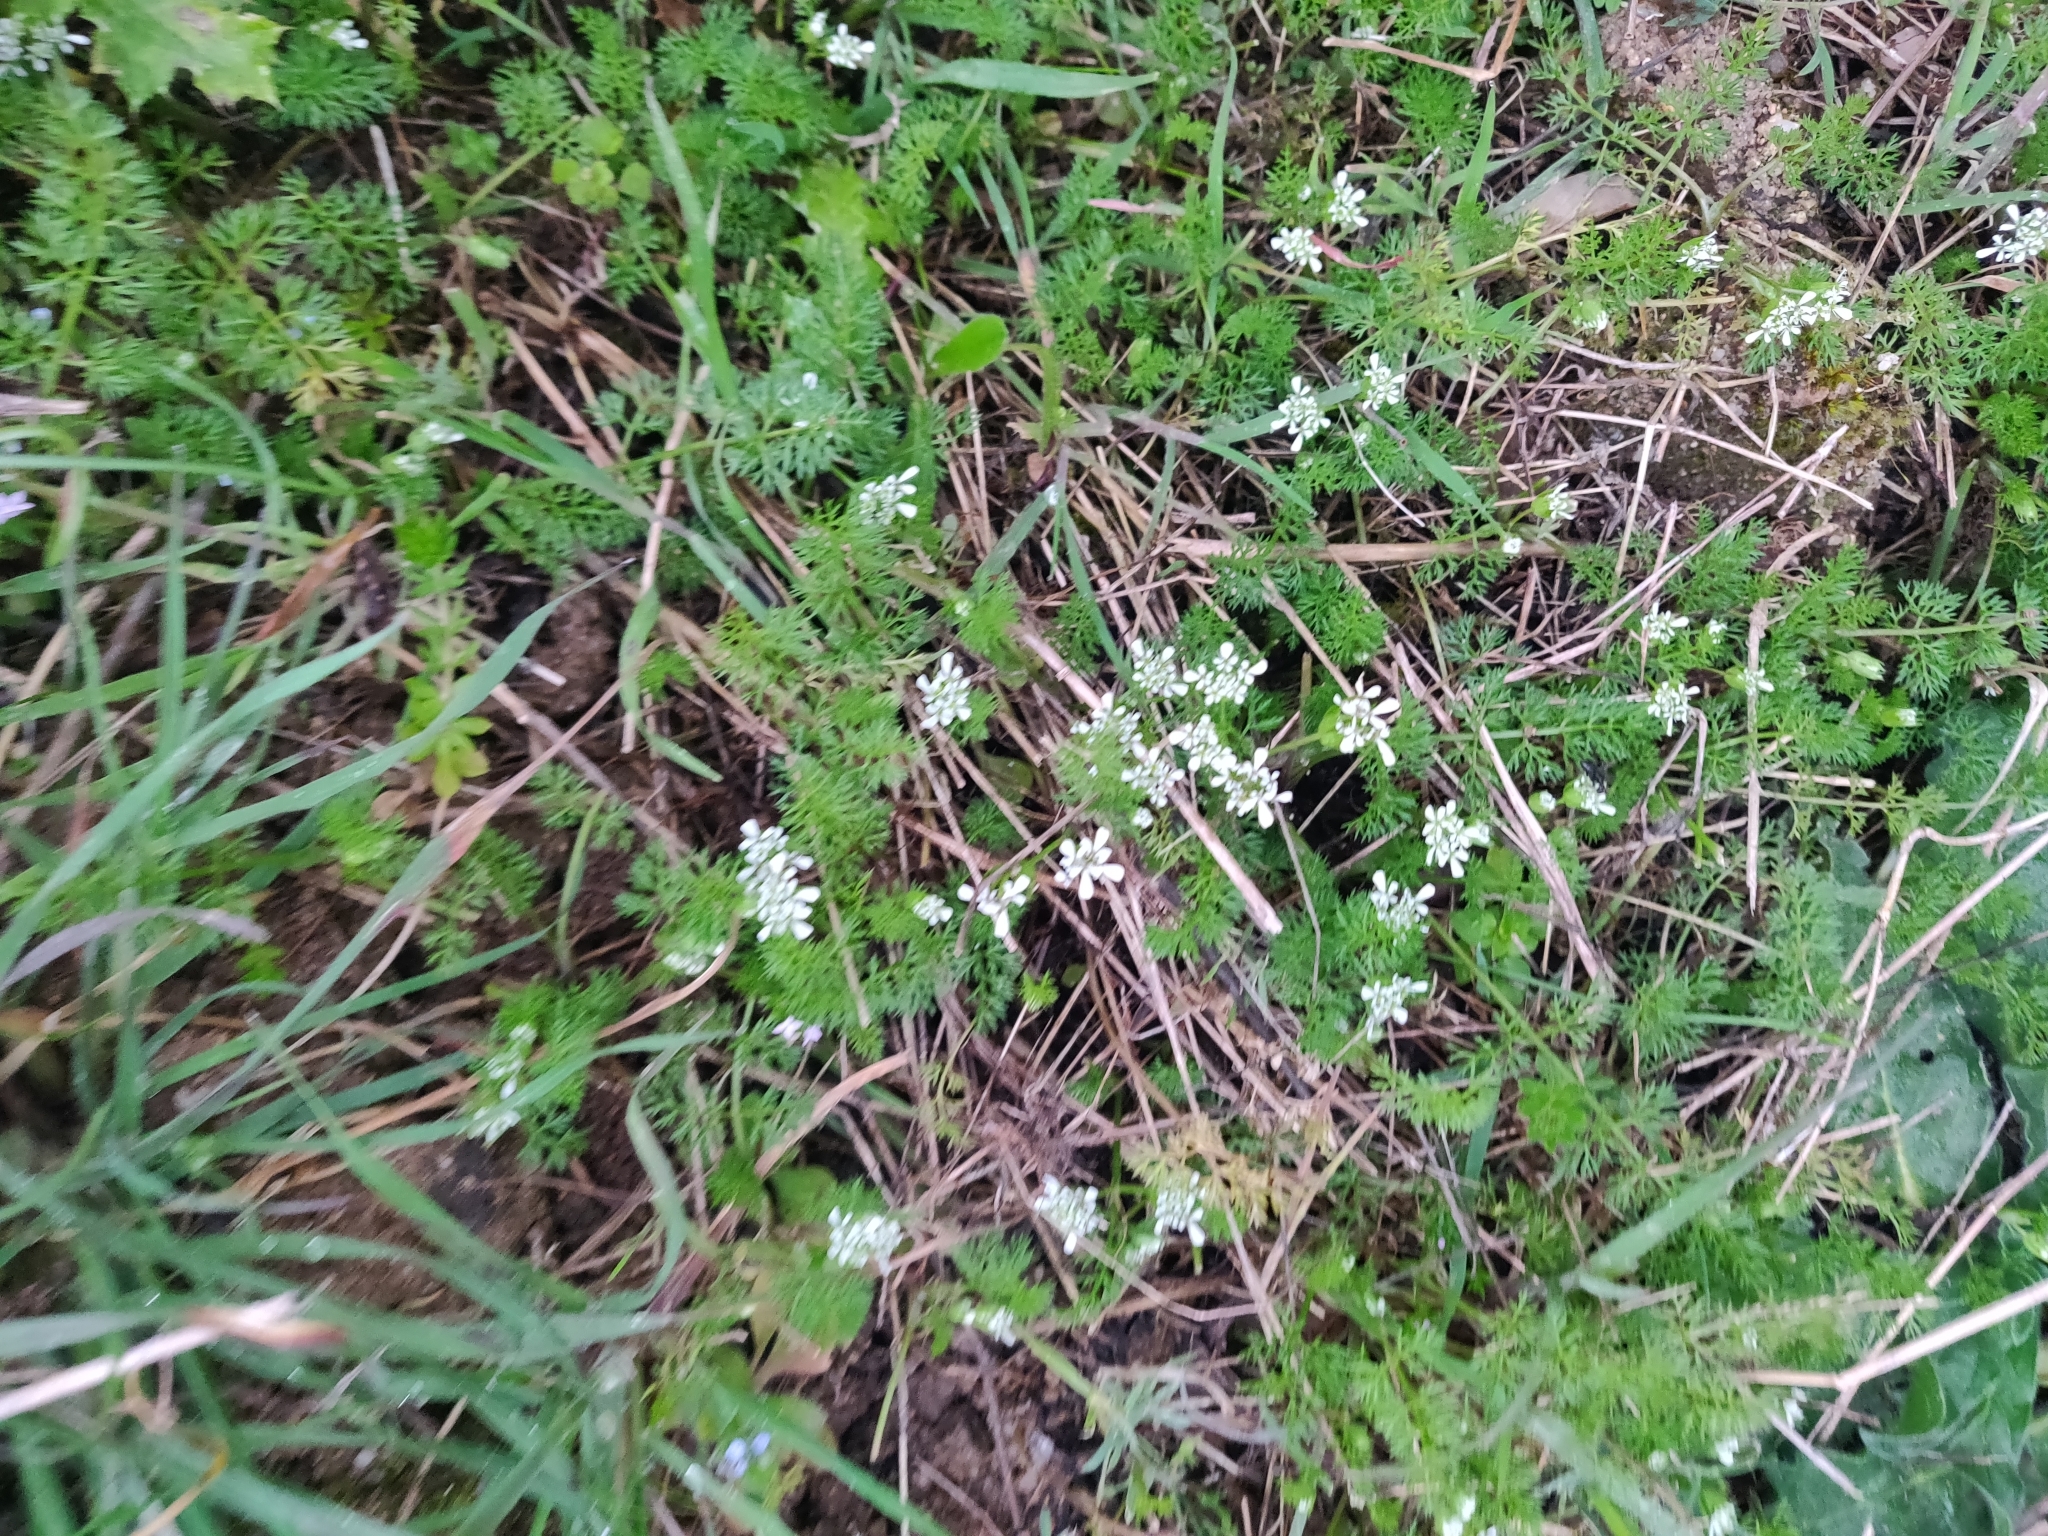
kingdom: Plantae
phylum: Tracheophyta
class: Magnoliopsida
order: Apiales
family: Apiaceae
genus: Scandix
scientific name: Scandix pecten-veneris
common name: Shepherd's-needle
